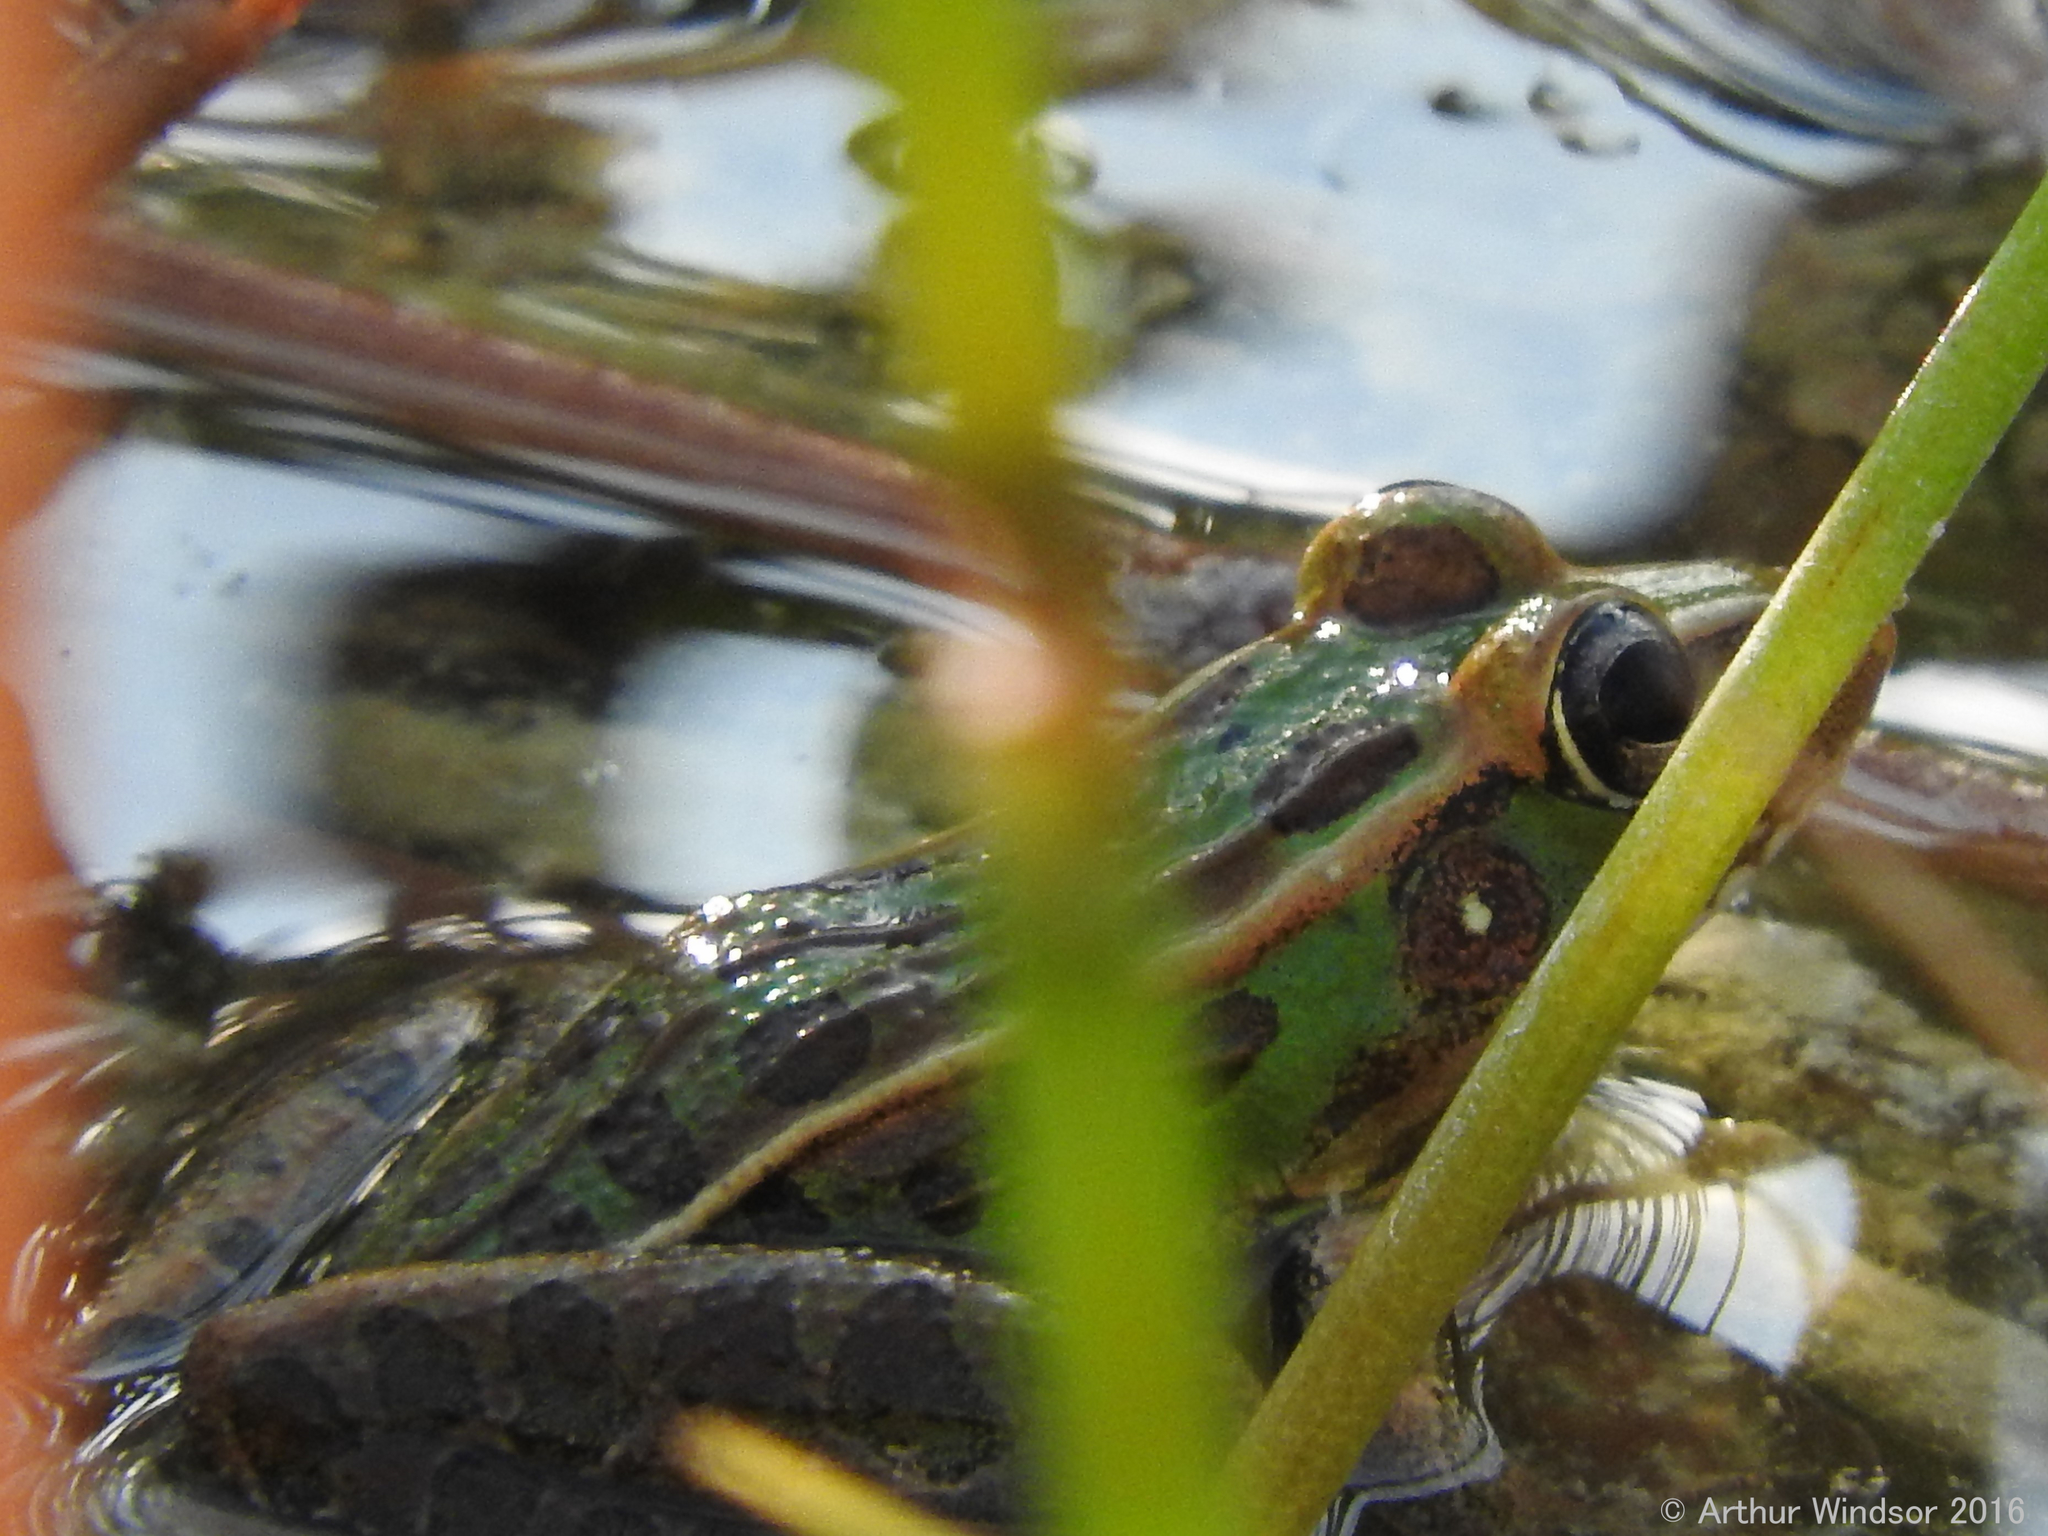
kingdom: Animalia
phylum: Chordata
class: Amphibia
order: Anura
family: Ranidae
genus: Lithobates
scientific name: Lithobates sphenocephalus
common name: Southern leopard frog
